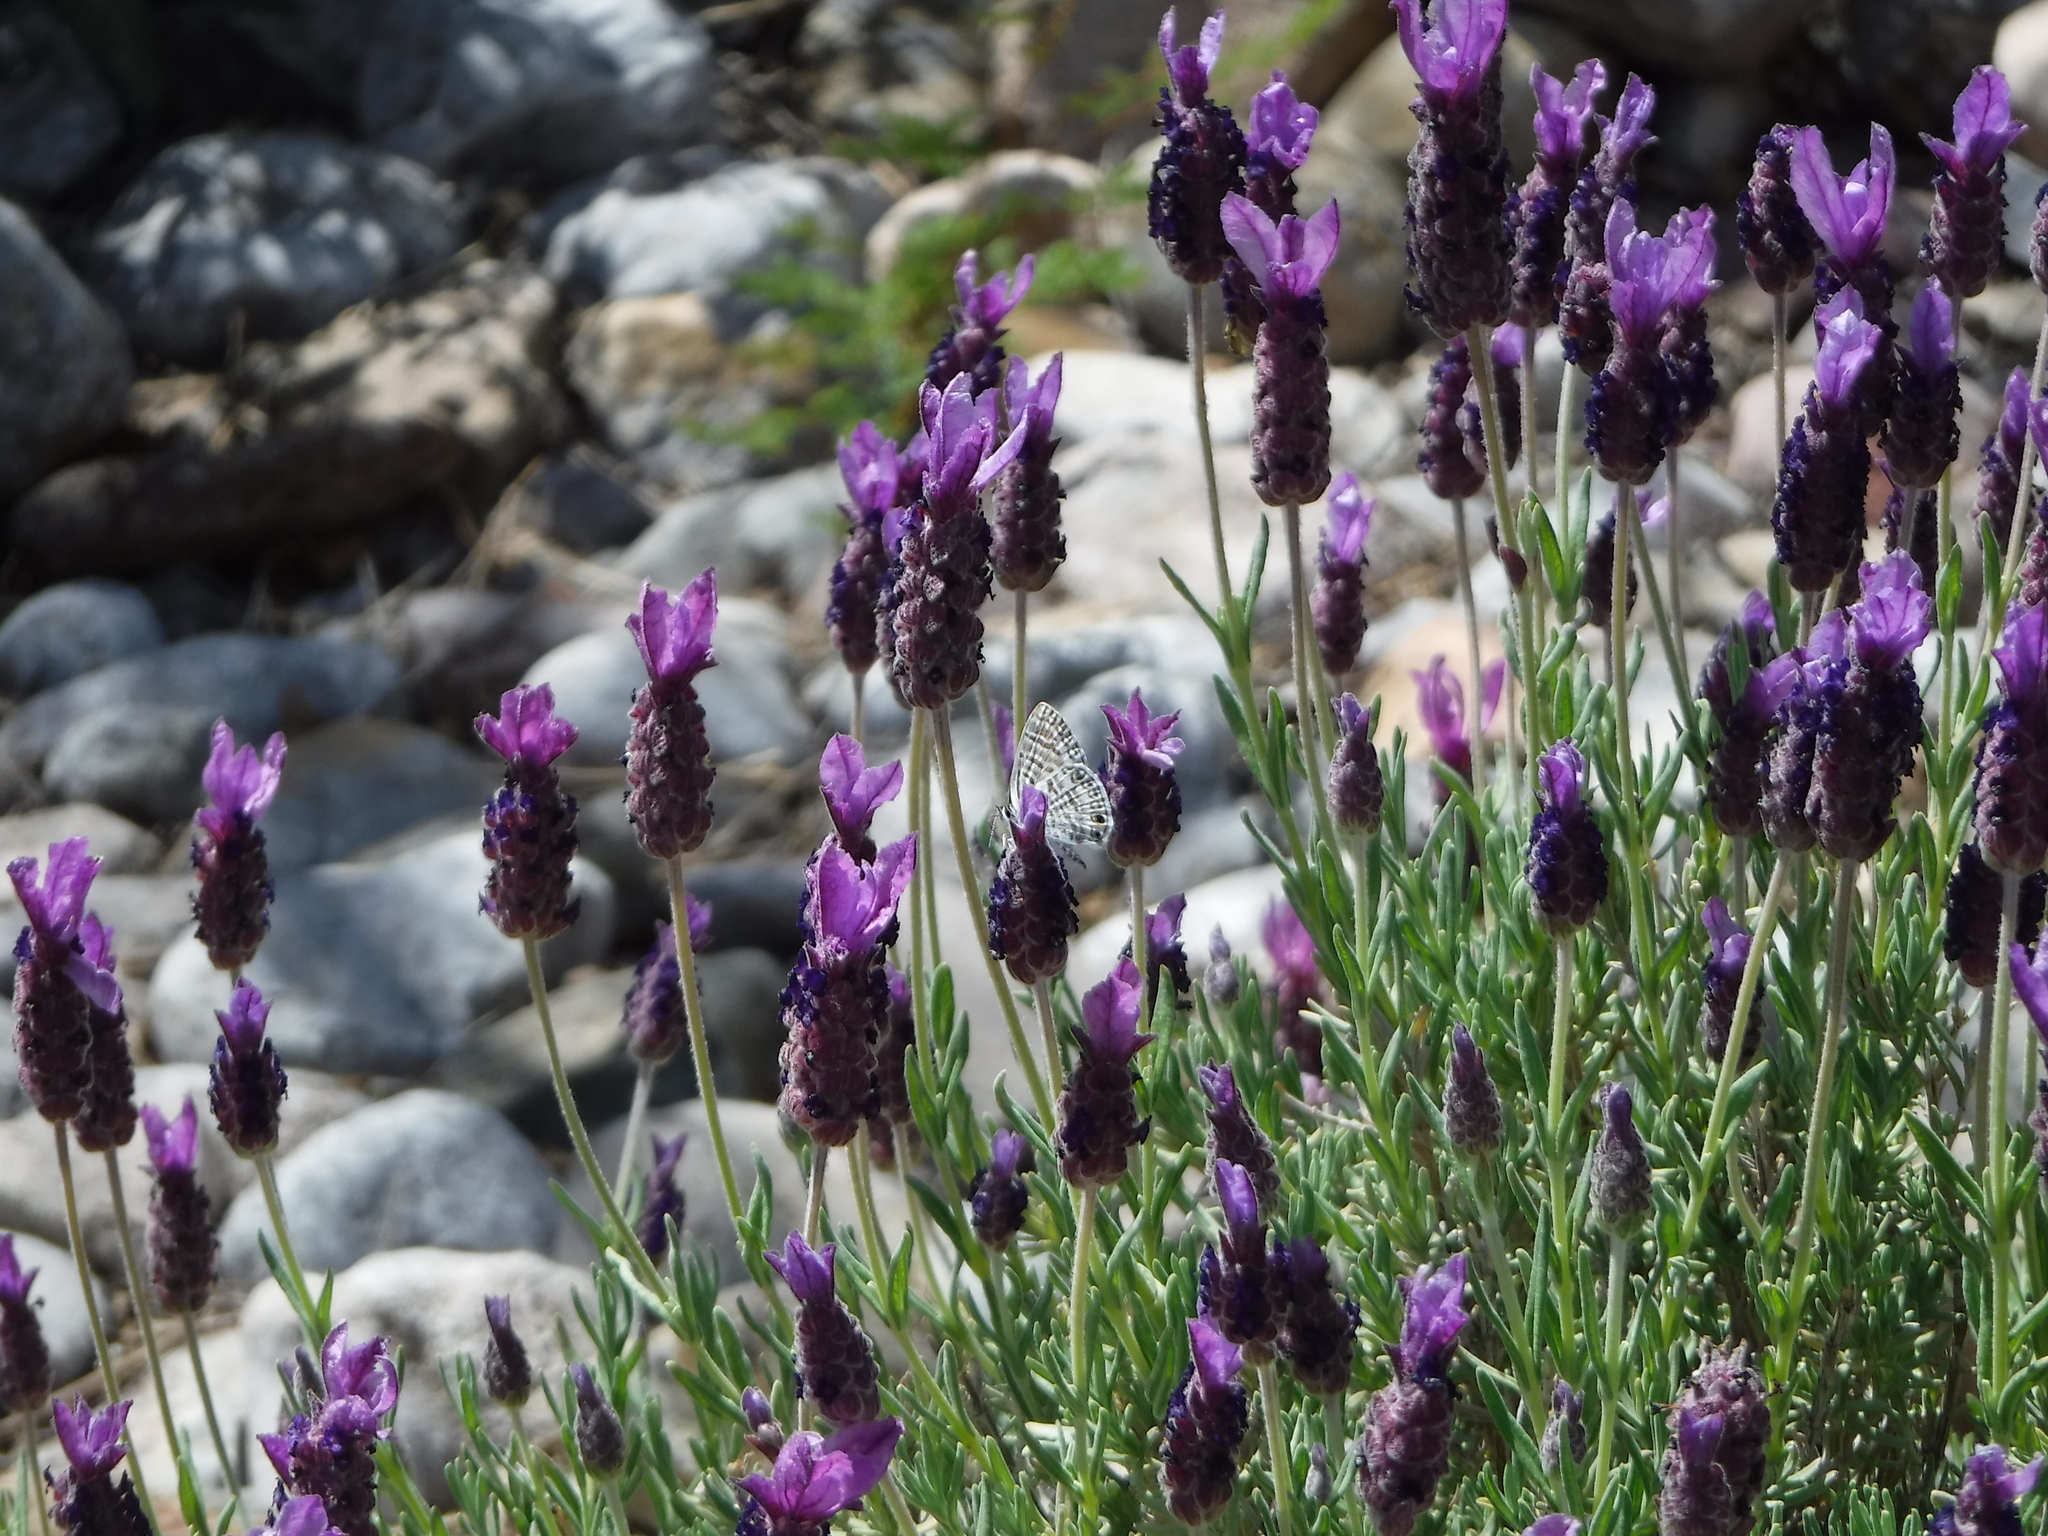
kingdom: Animalia
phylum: Arthropoda
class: Insecta
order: Lepidoptera
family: Lycaenidae
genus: Leptotes
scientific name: Leptotes marina
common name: Marine blue
